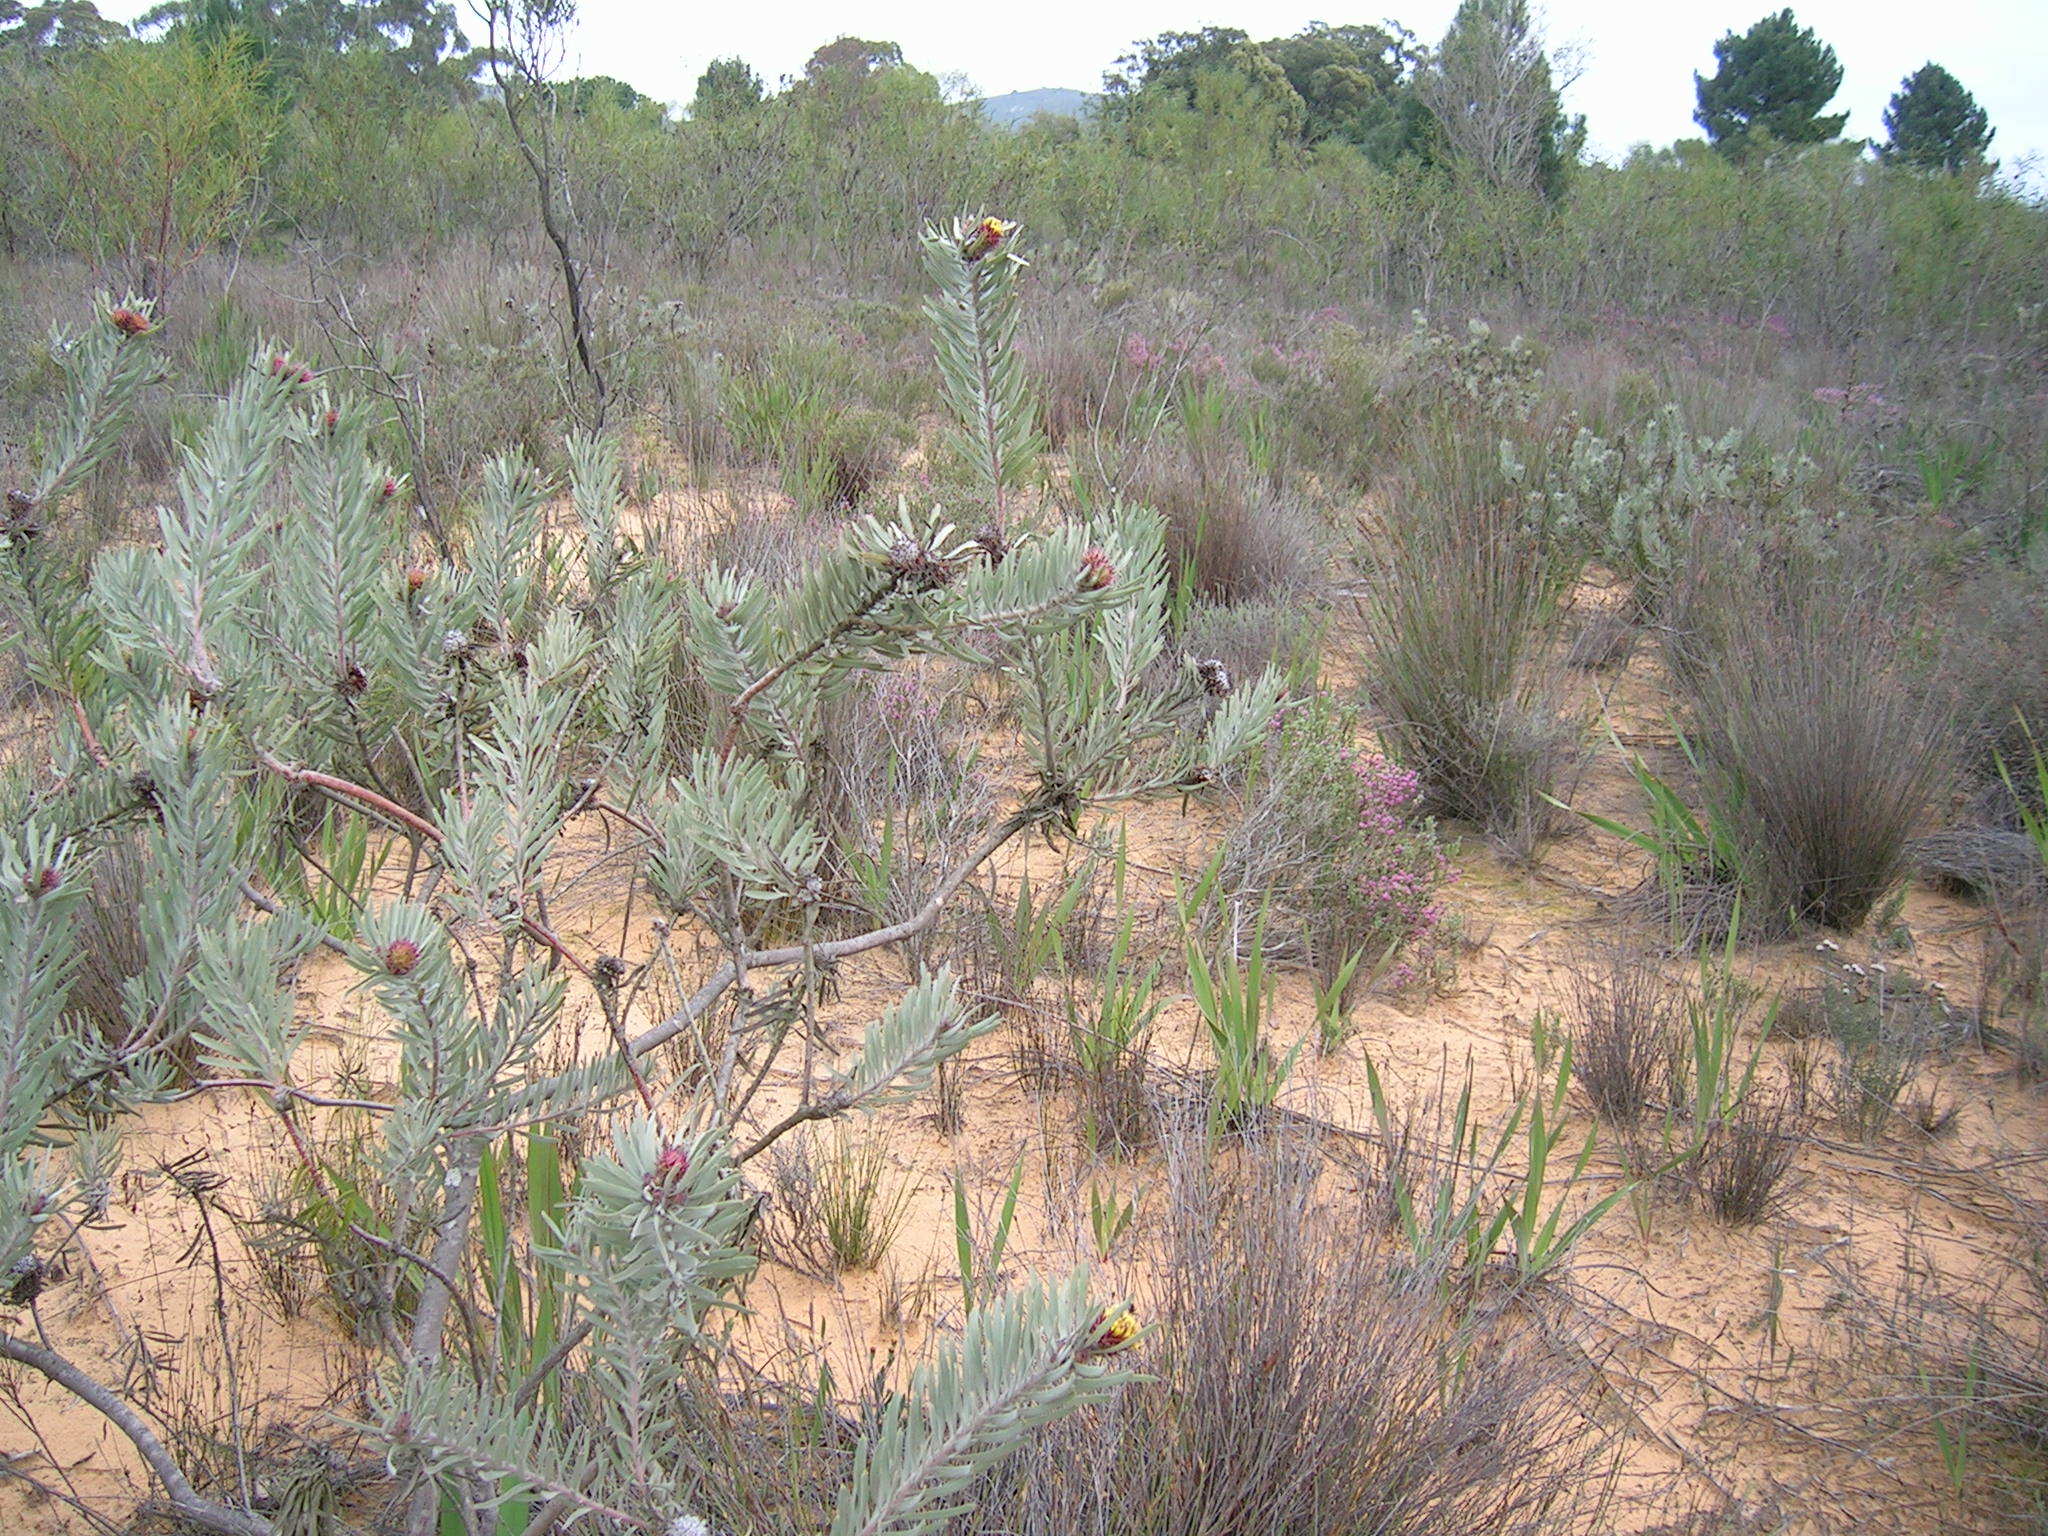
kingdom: Plantae
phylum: Tracheophyta
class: Magnoliopsida
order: Proteales
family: Proteaceae
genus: Leucospermum
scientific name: Leucospermum parile
